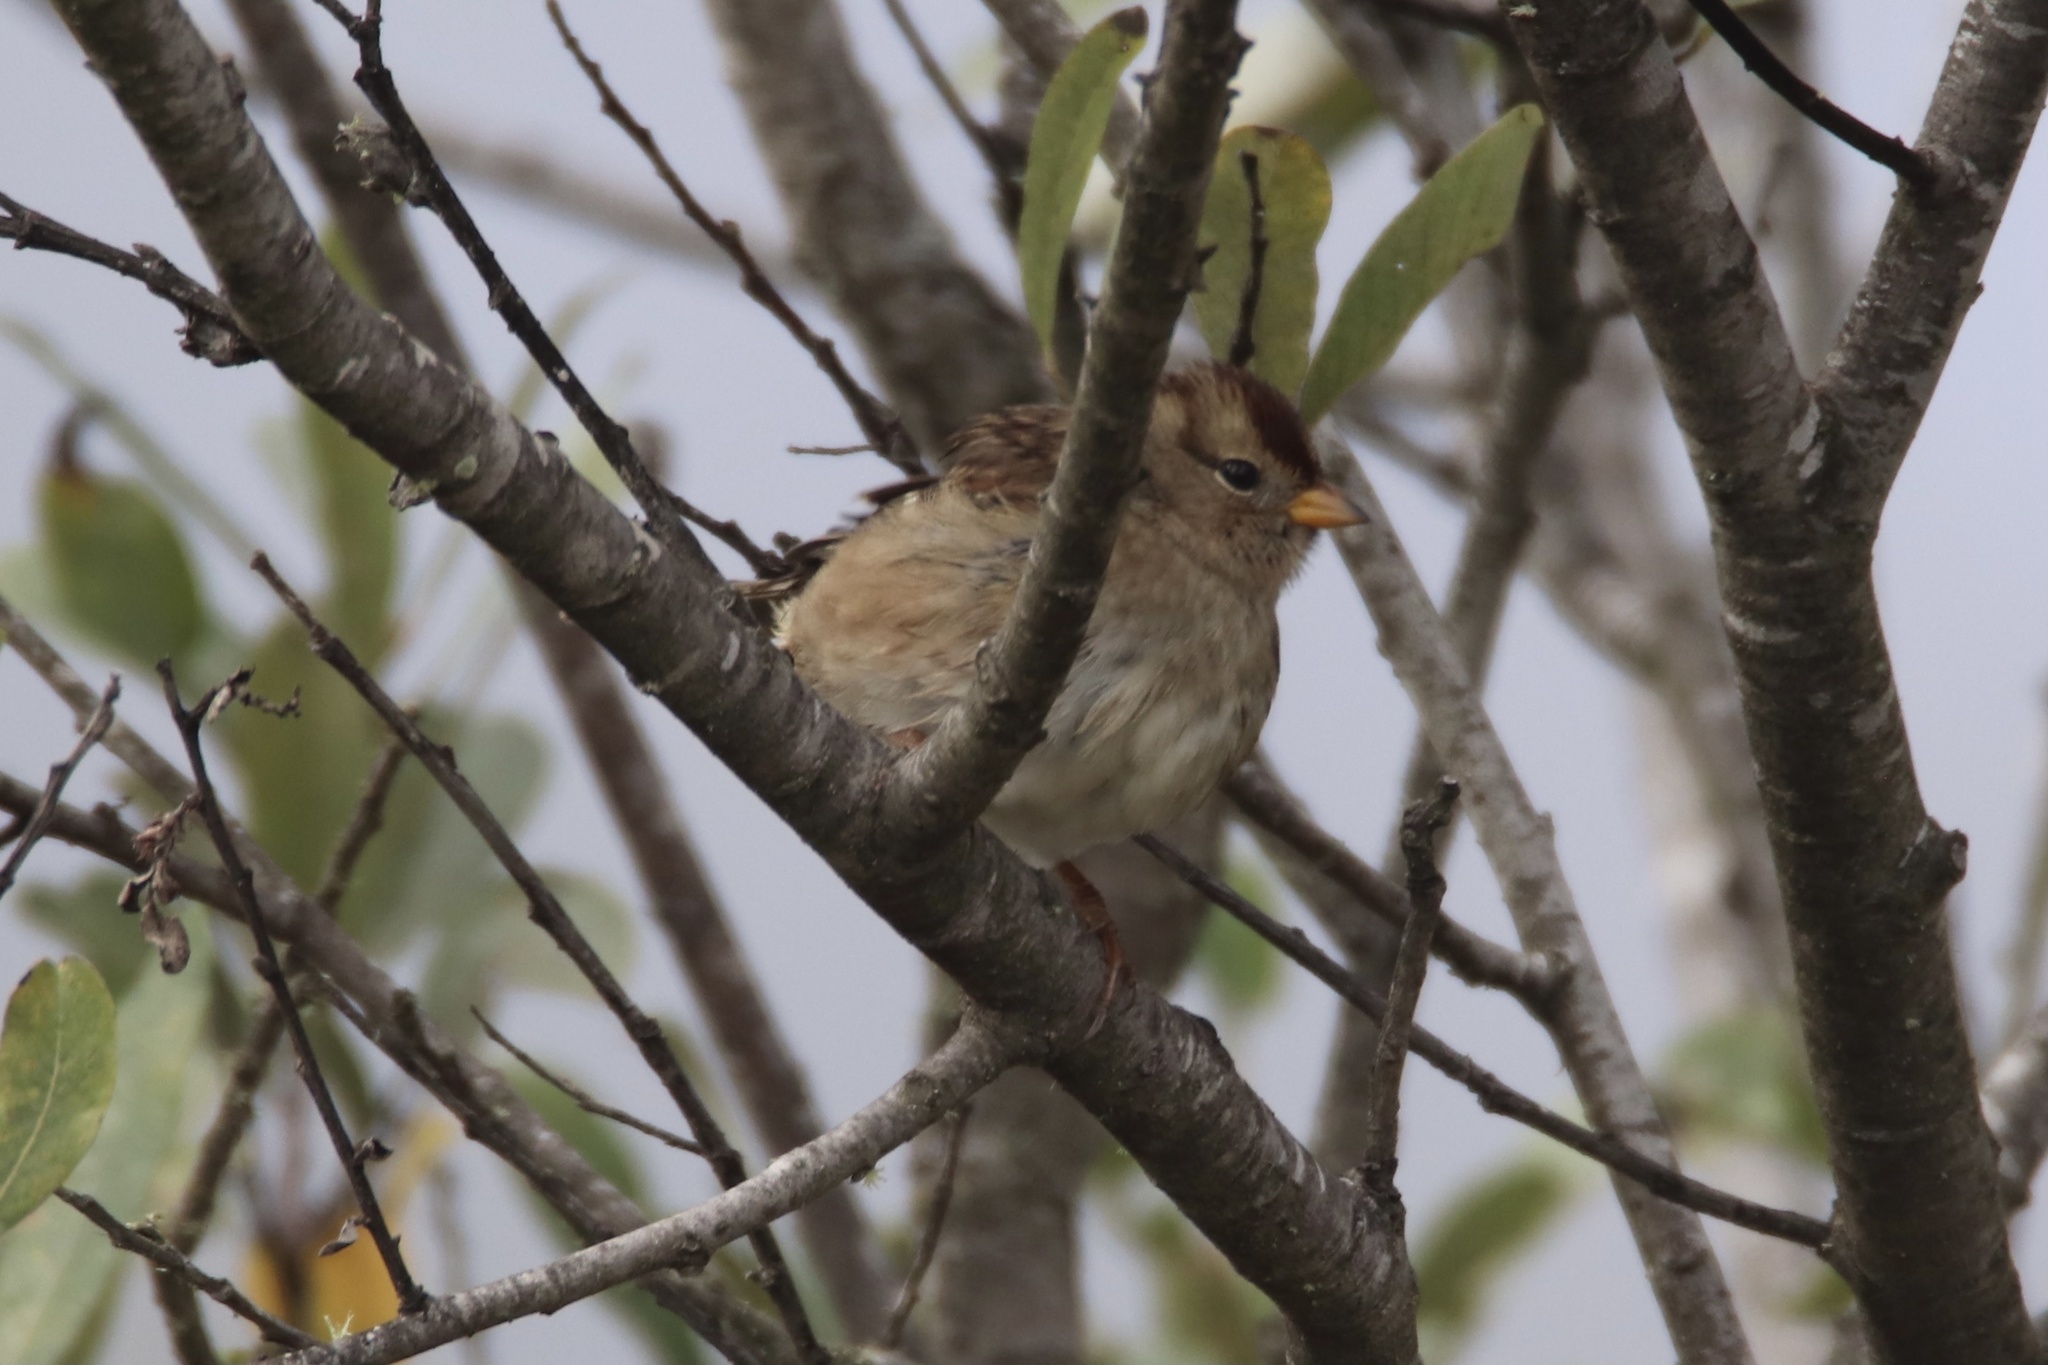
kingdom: Animalia
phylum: Chordata
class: Aves
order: Passeriformes
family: Passerellidae
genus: Zonotrichia
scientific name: Zonotrichia leucophrys
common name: White-crowned sparrow
